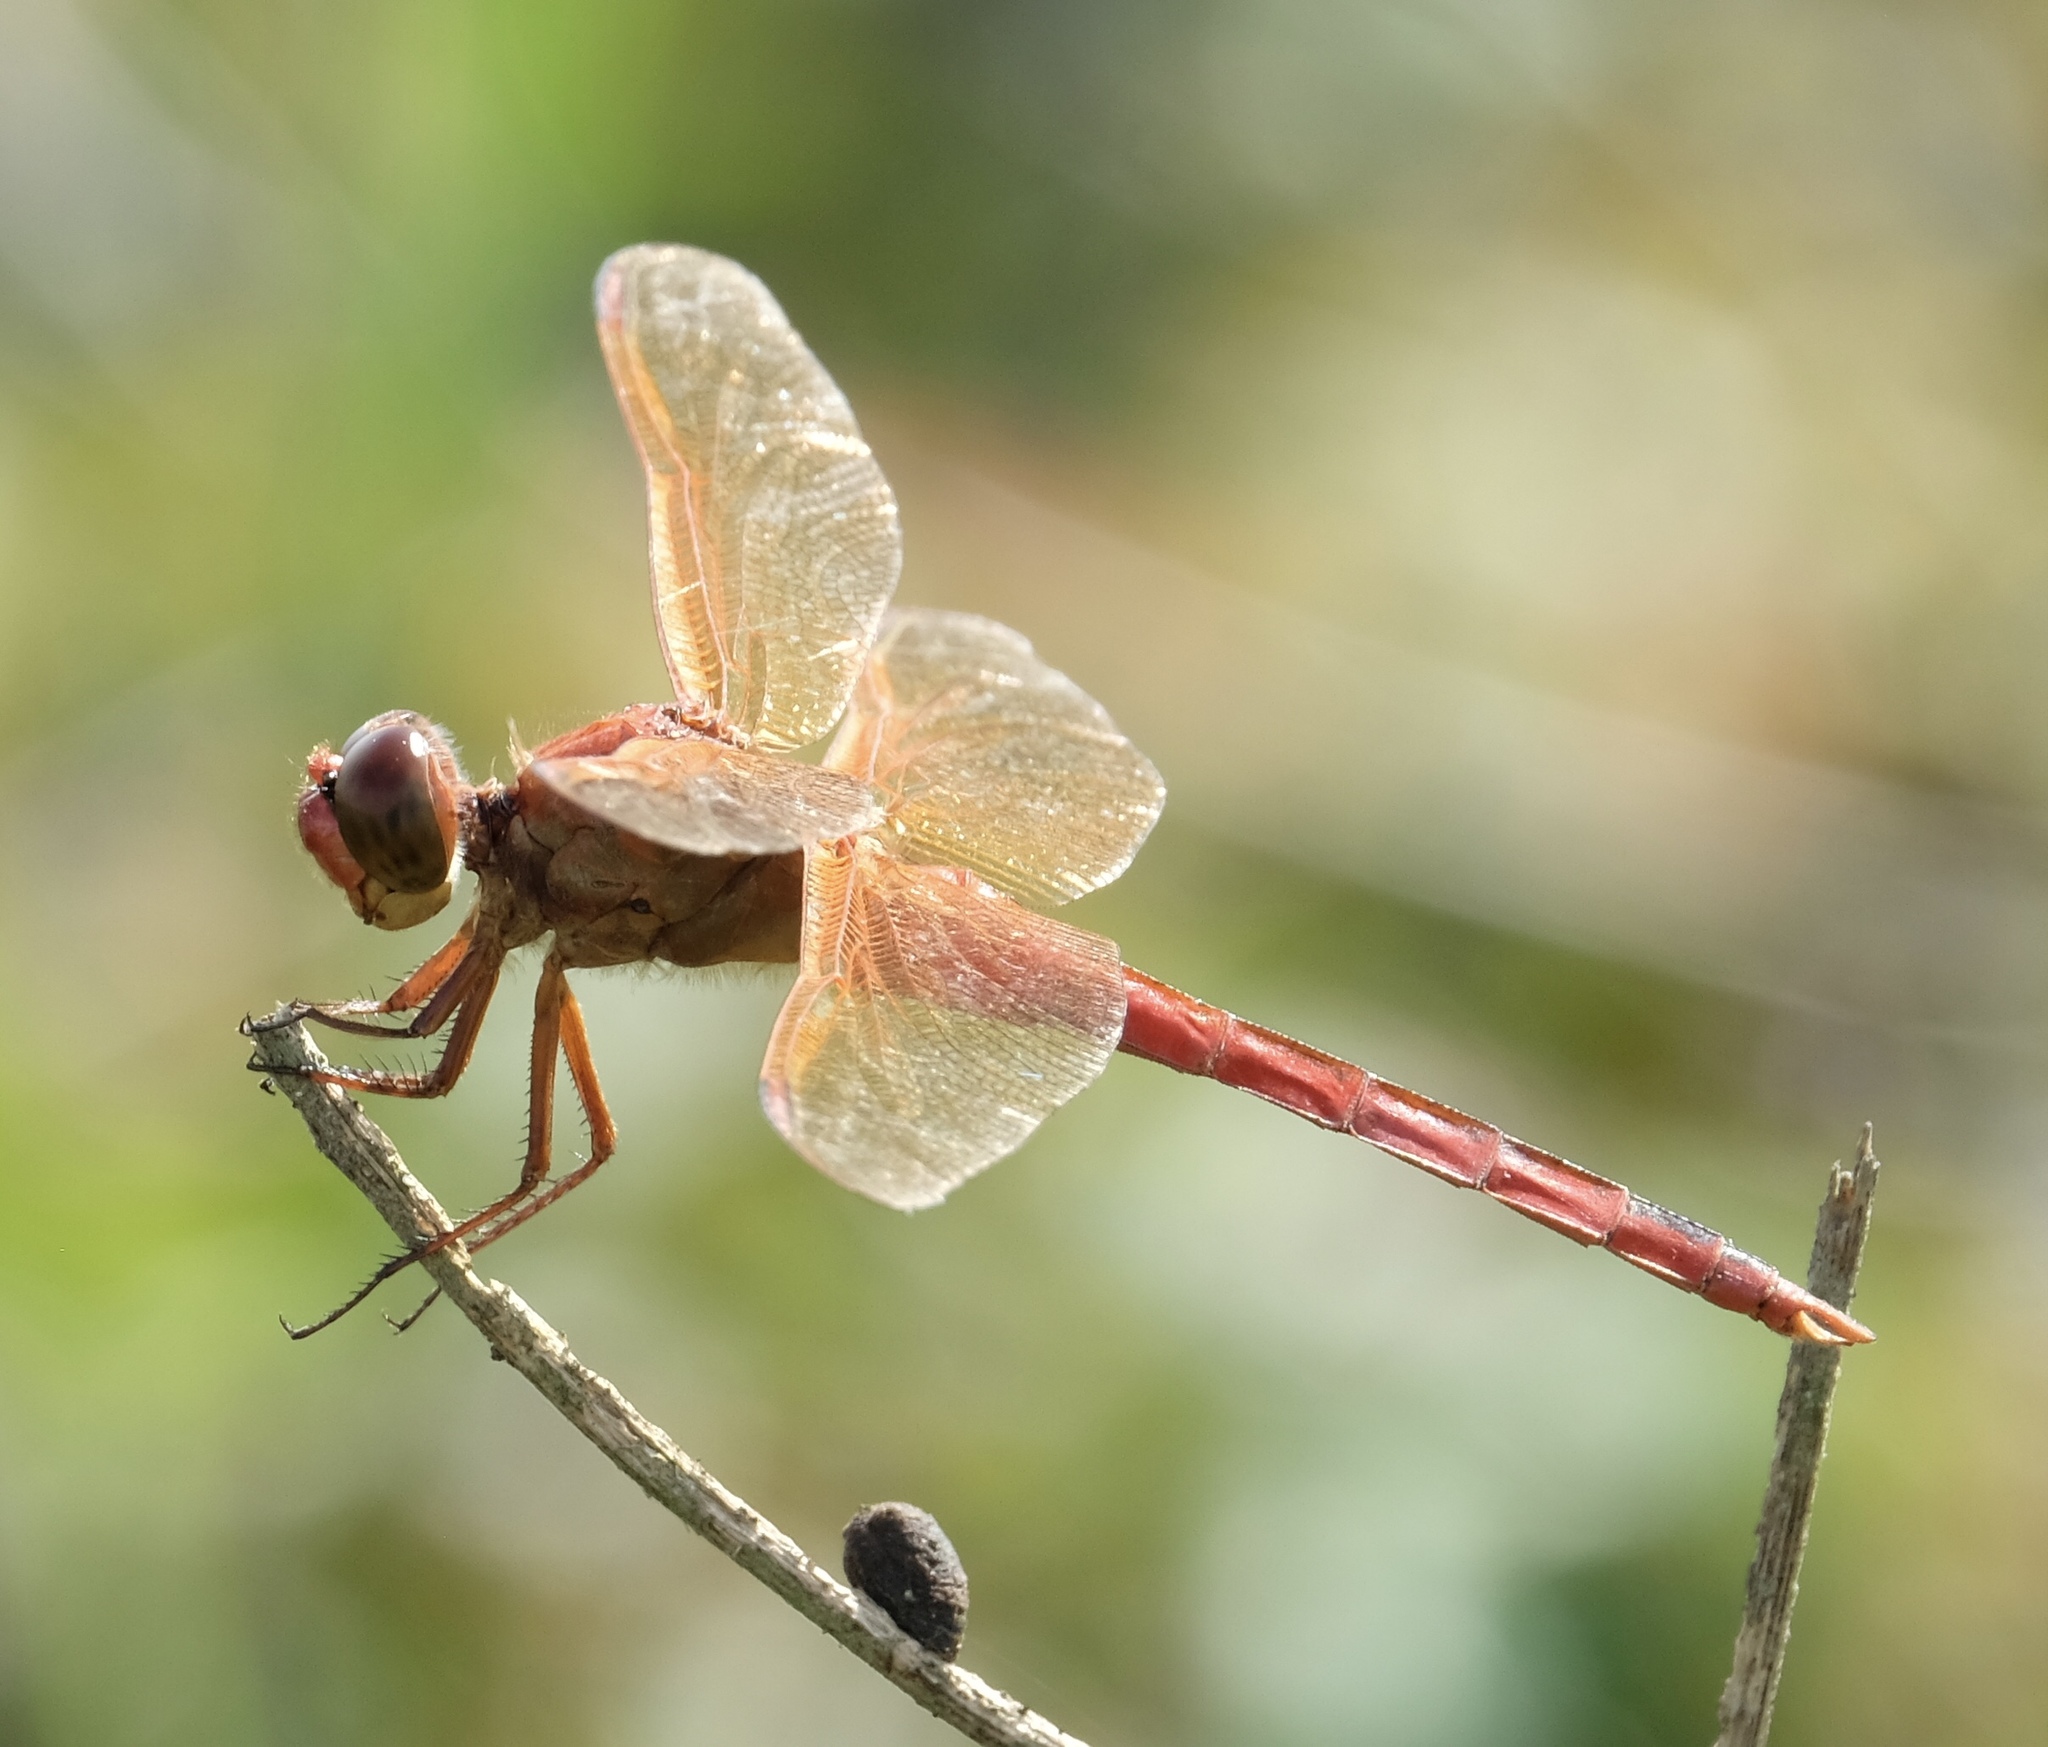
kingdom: Animalia
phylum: Arthropoda
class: Insecta
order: Odonata
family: Libellulidae
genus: Libellula
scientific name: Libellula needhami
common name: Needham's skimmer
